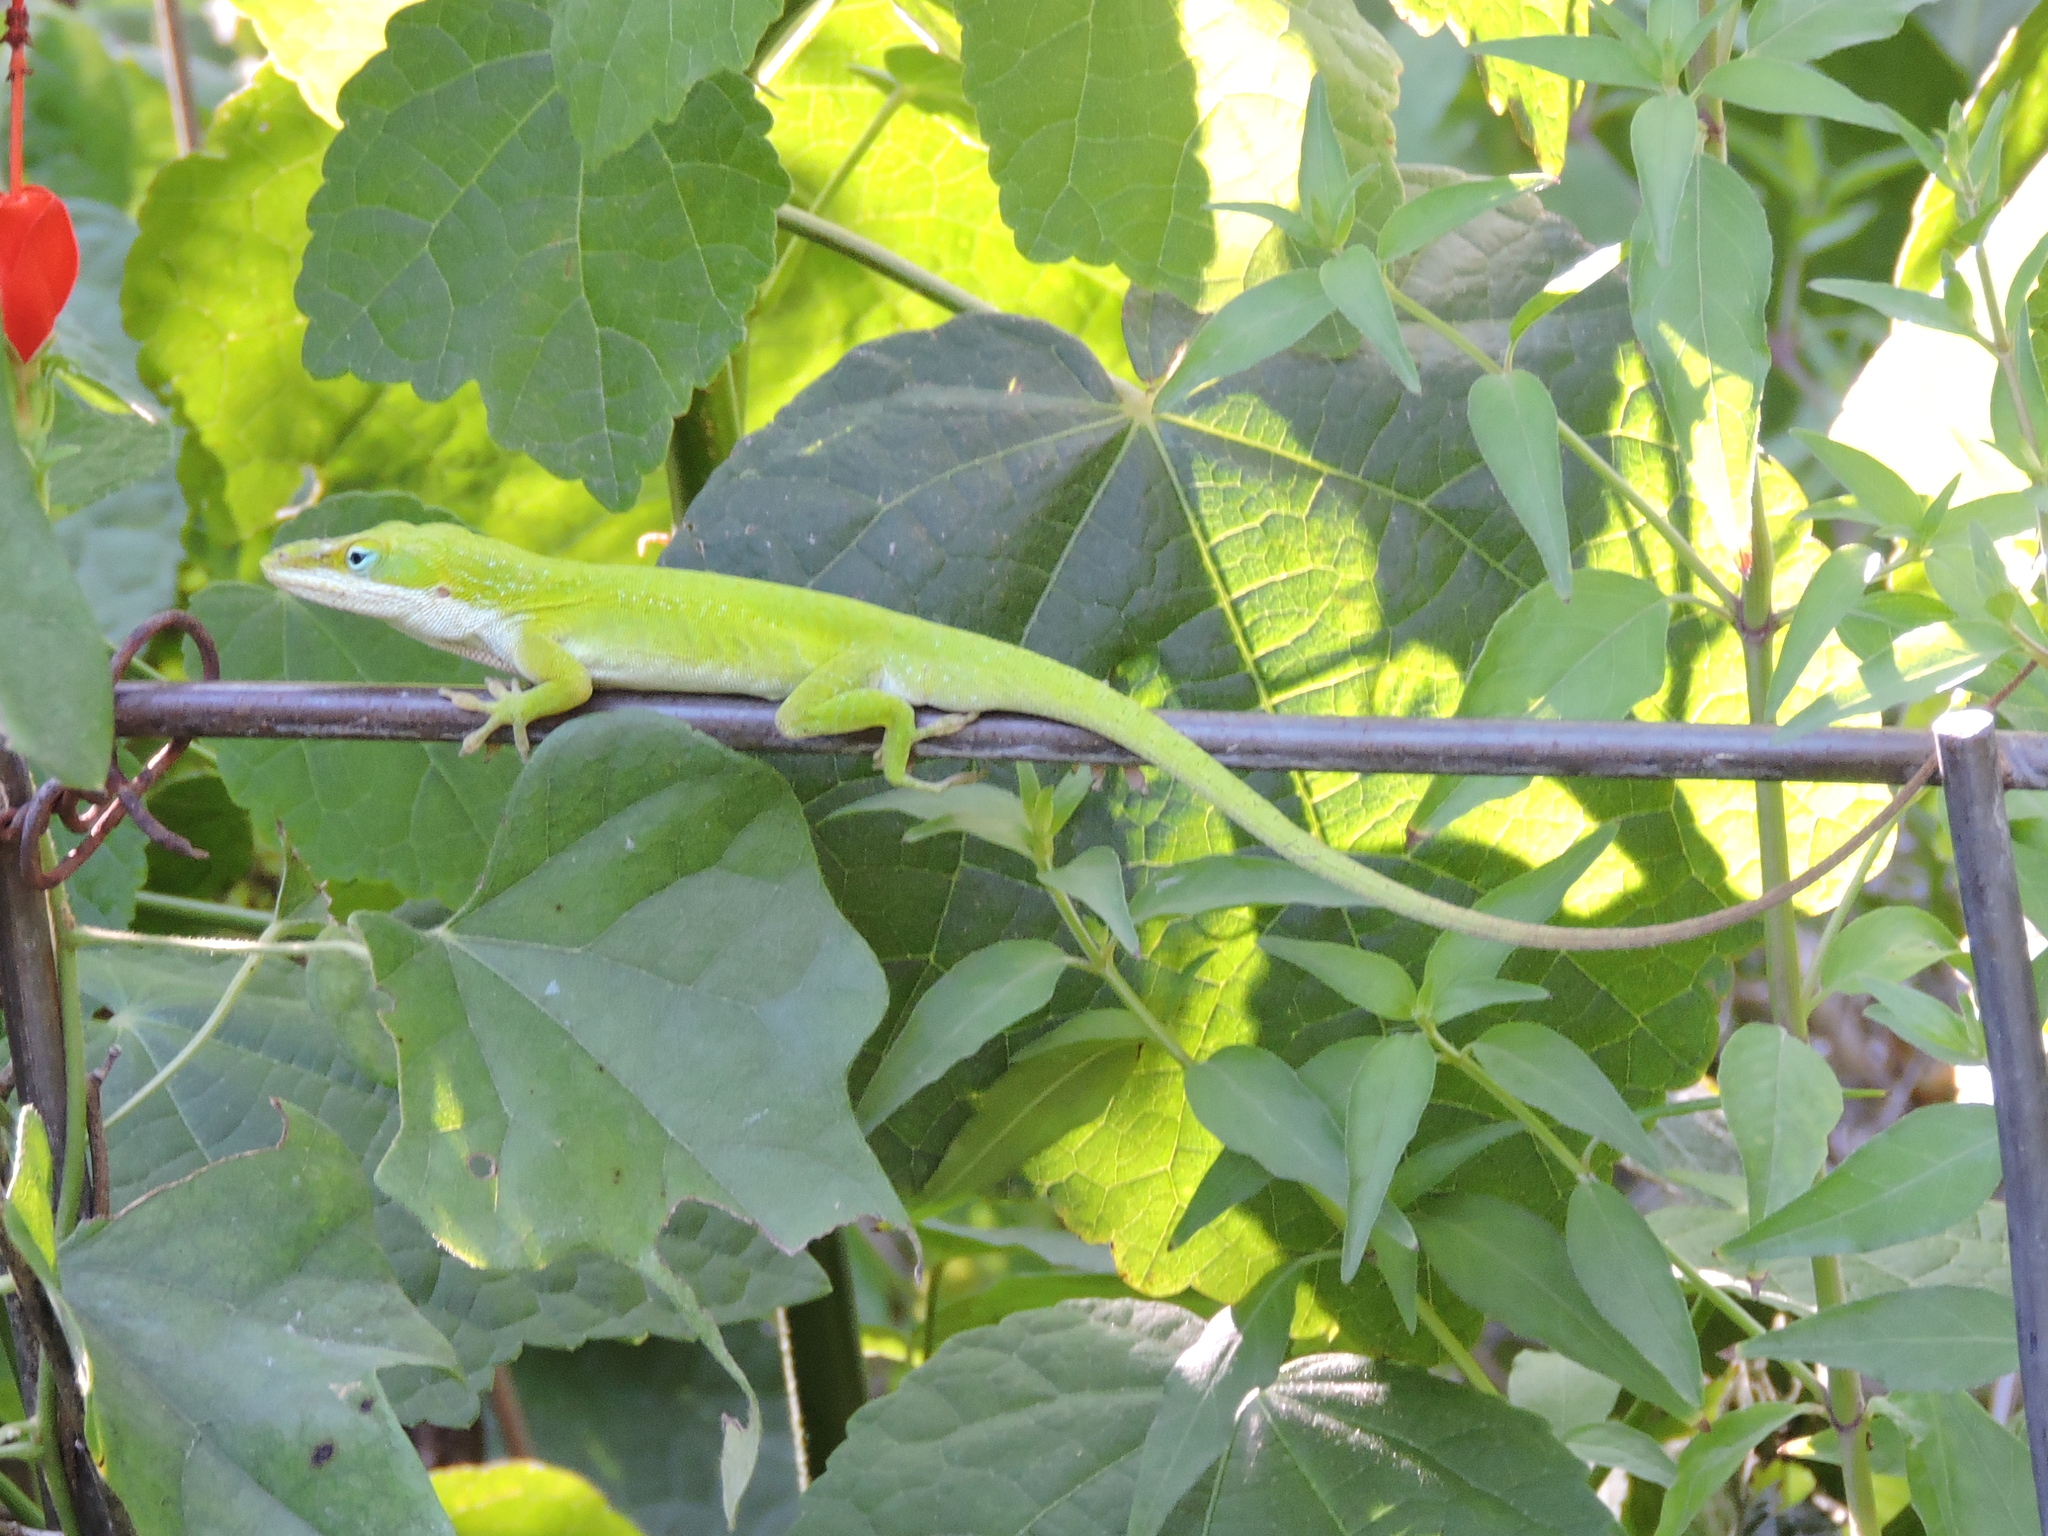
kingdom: Animalia
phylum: Chordata
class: Squamata
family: Dactyloidae
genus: Anolis
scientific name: Anolis carolinensis
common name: Green anole
